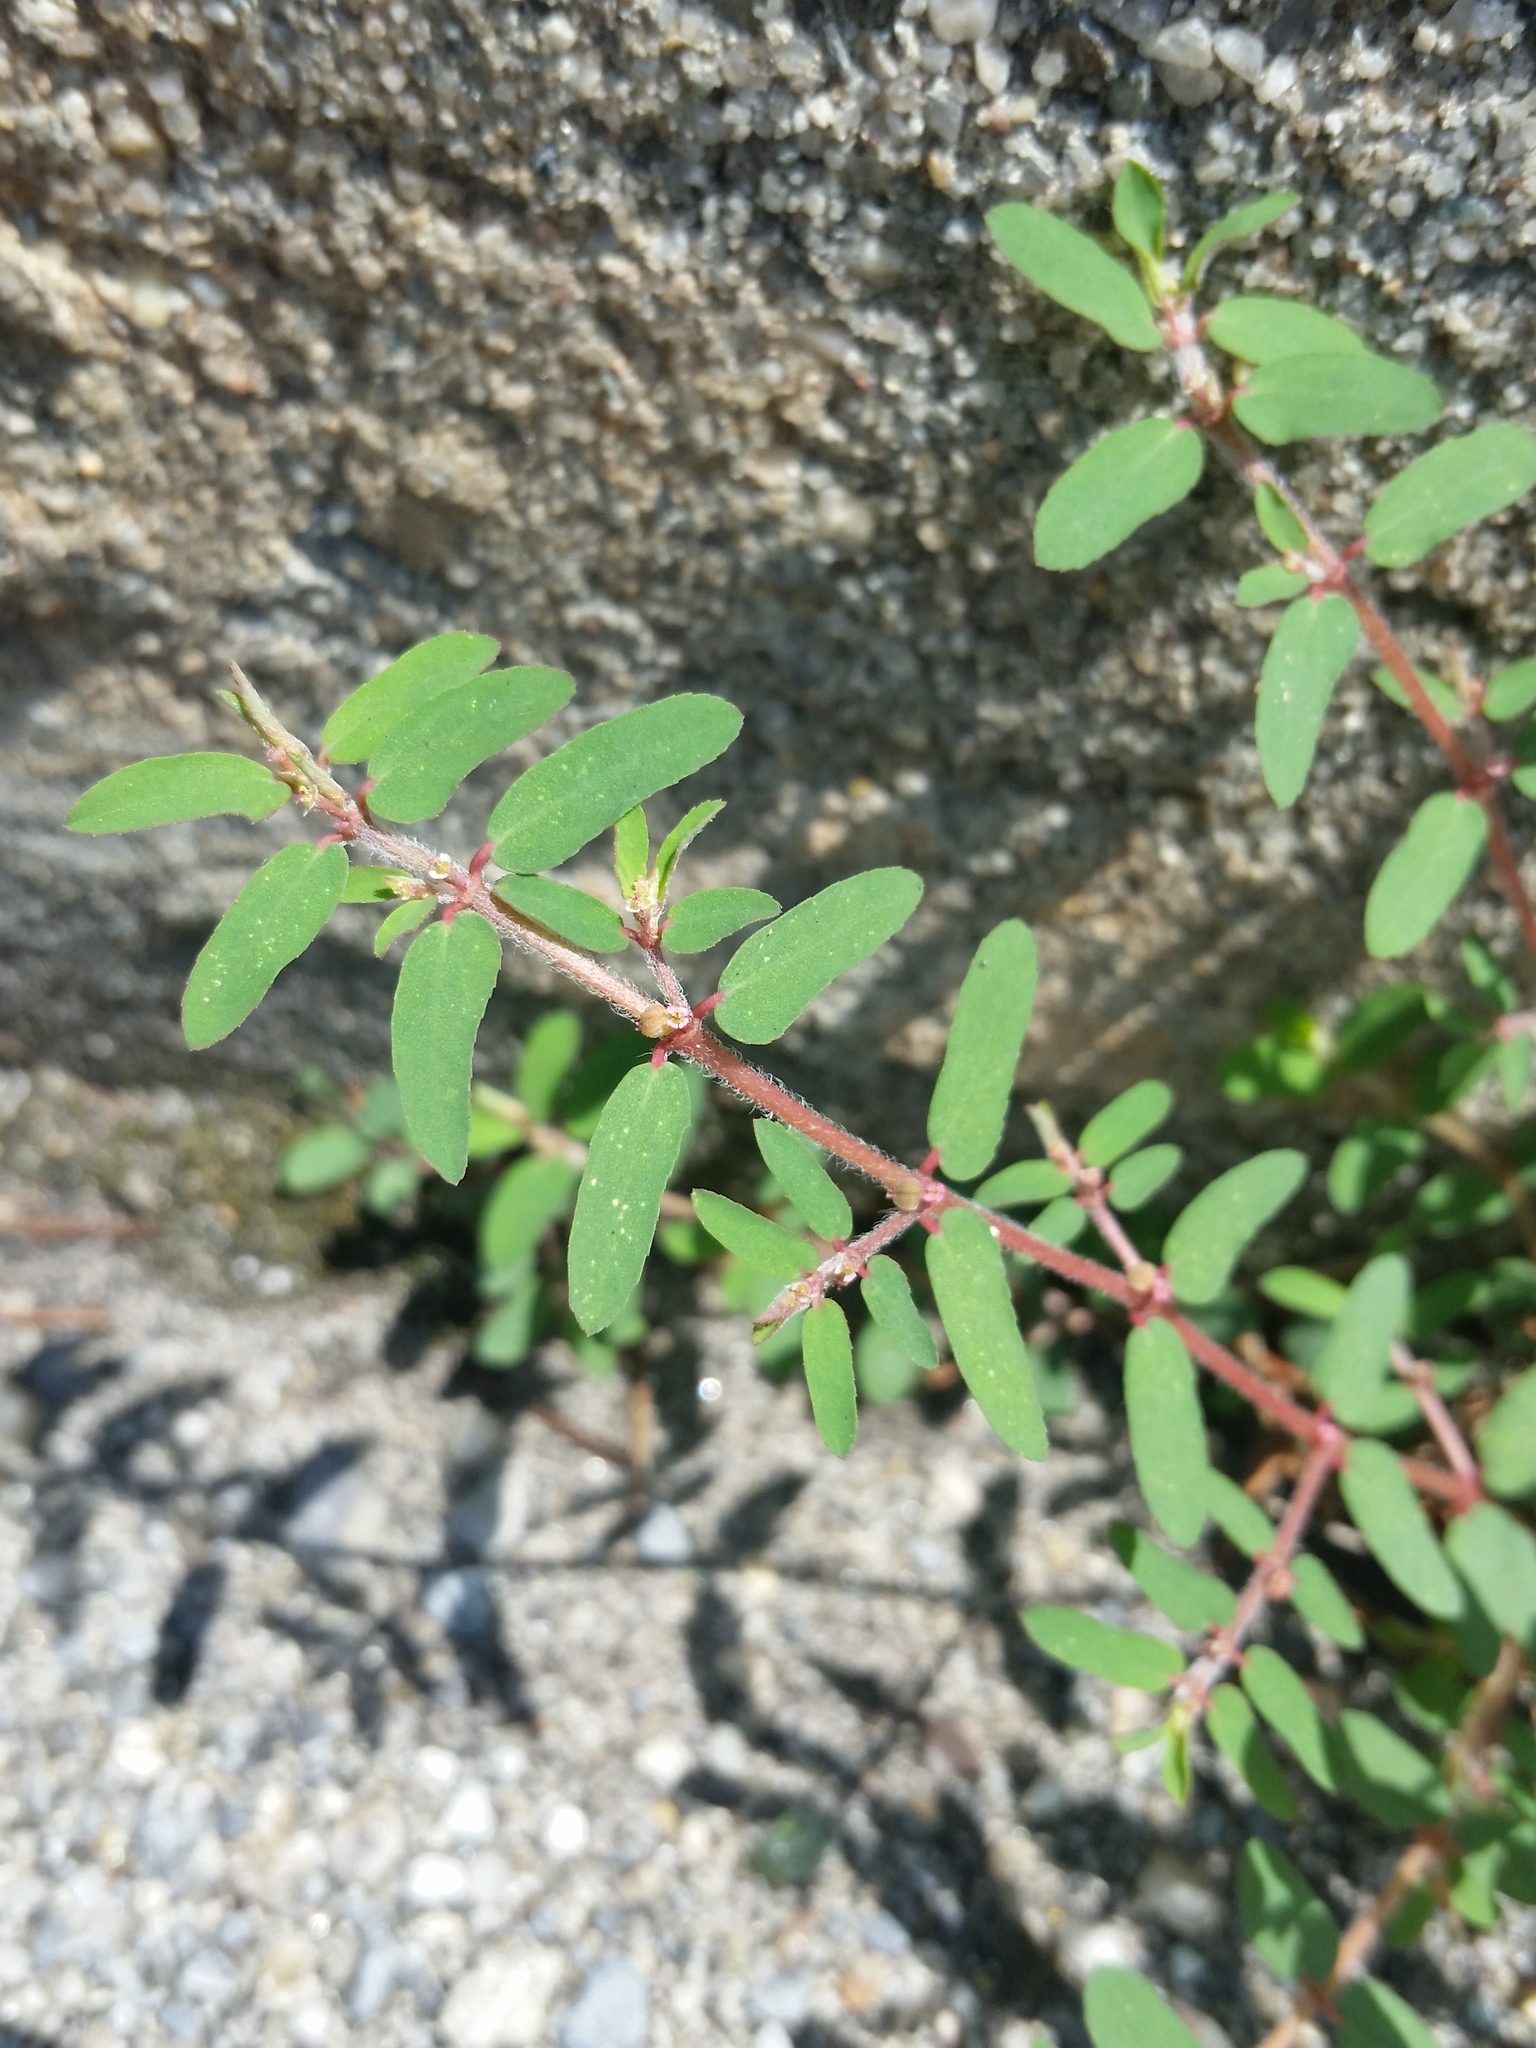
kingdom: Plantae
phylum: Tracheophyta
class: Magnoliopsida
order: Malpighiales
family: Euphorbiaceae
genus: Euphorbia
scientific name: Euphorbia maculata
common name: Spotted spurge
